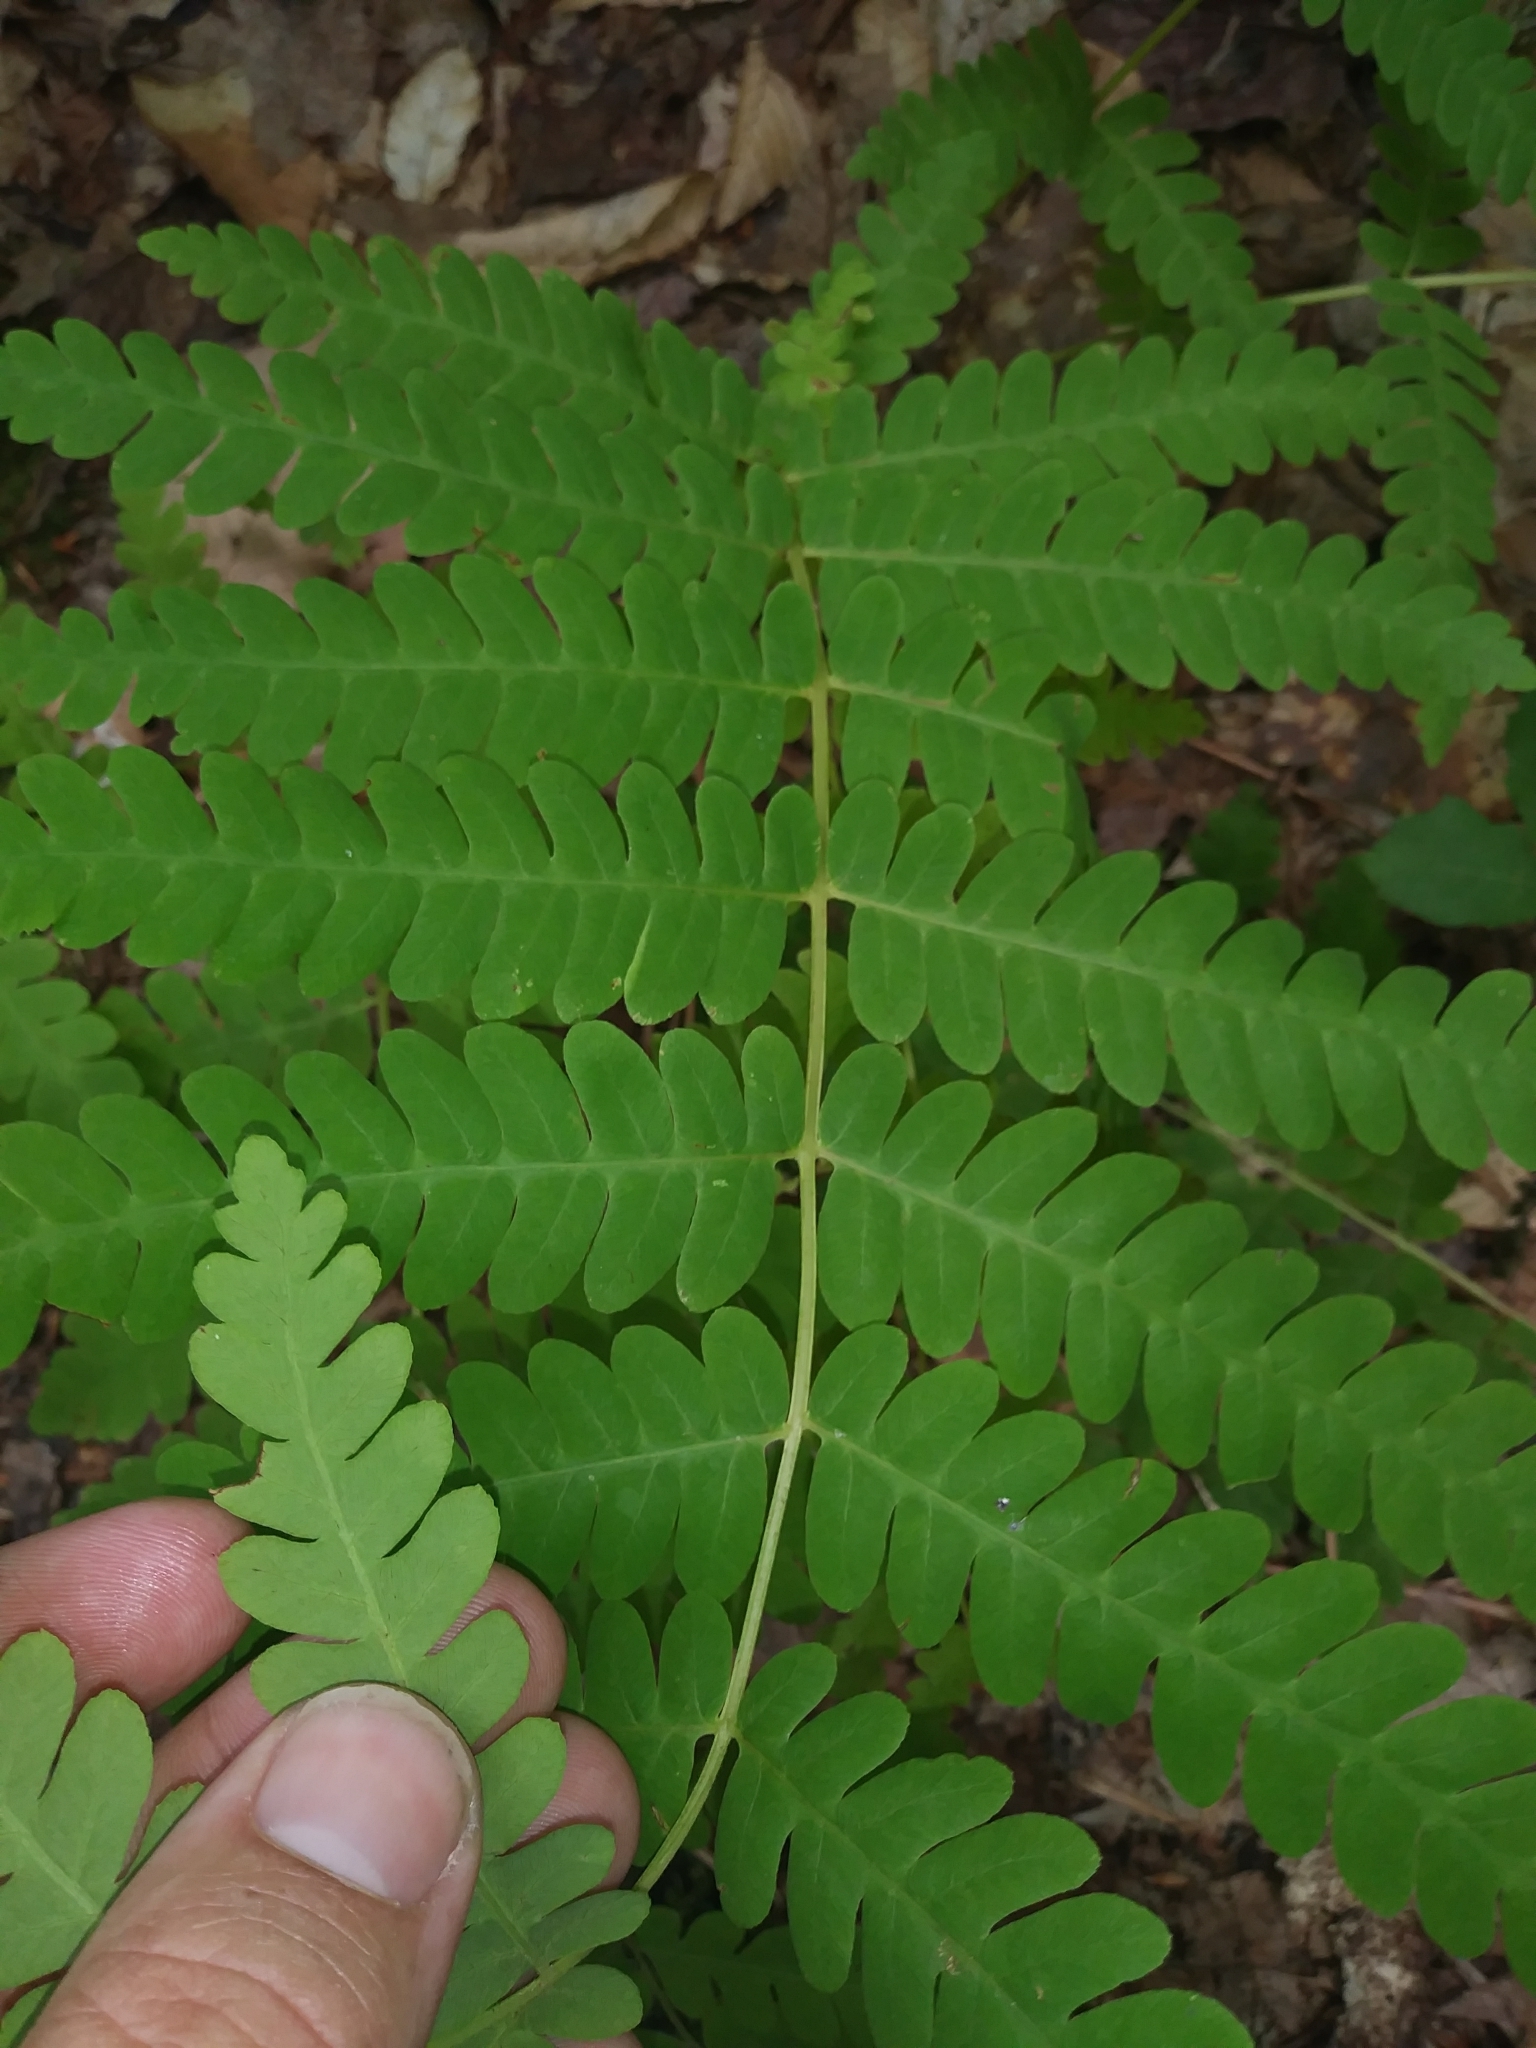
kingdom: Plantae
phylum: Tracheophyta
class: Polypodiopsida
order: Osmundales
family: Osmundaceae
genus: Claytosmunda
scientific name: Claytosmunda claytoniana
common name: Clayton's fern
